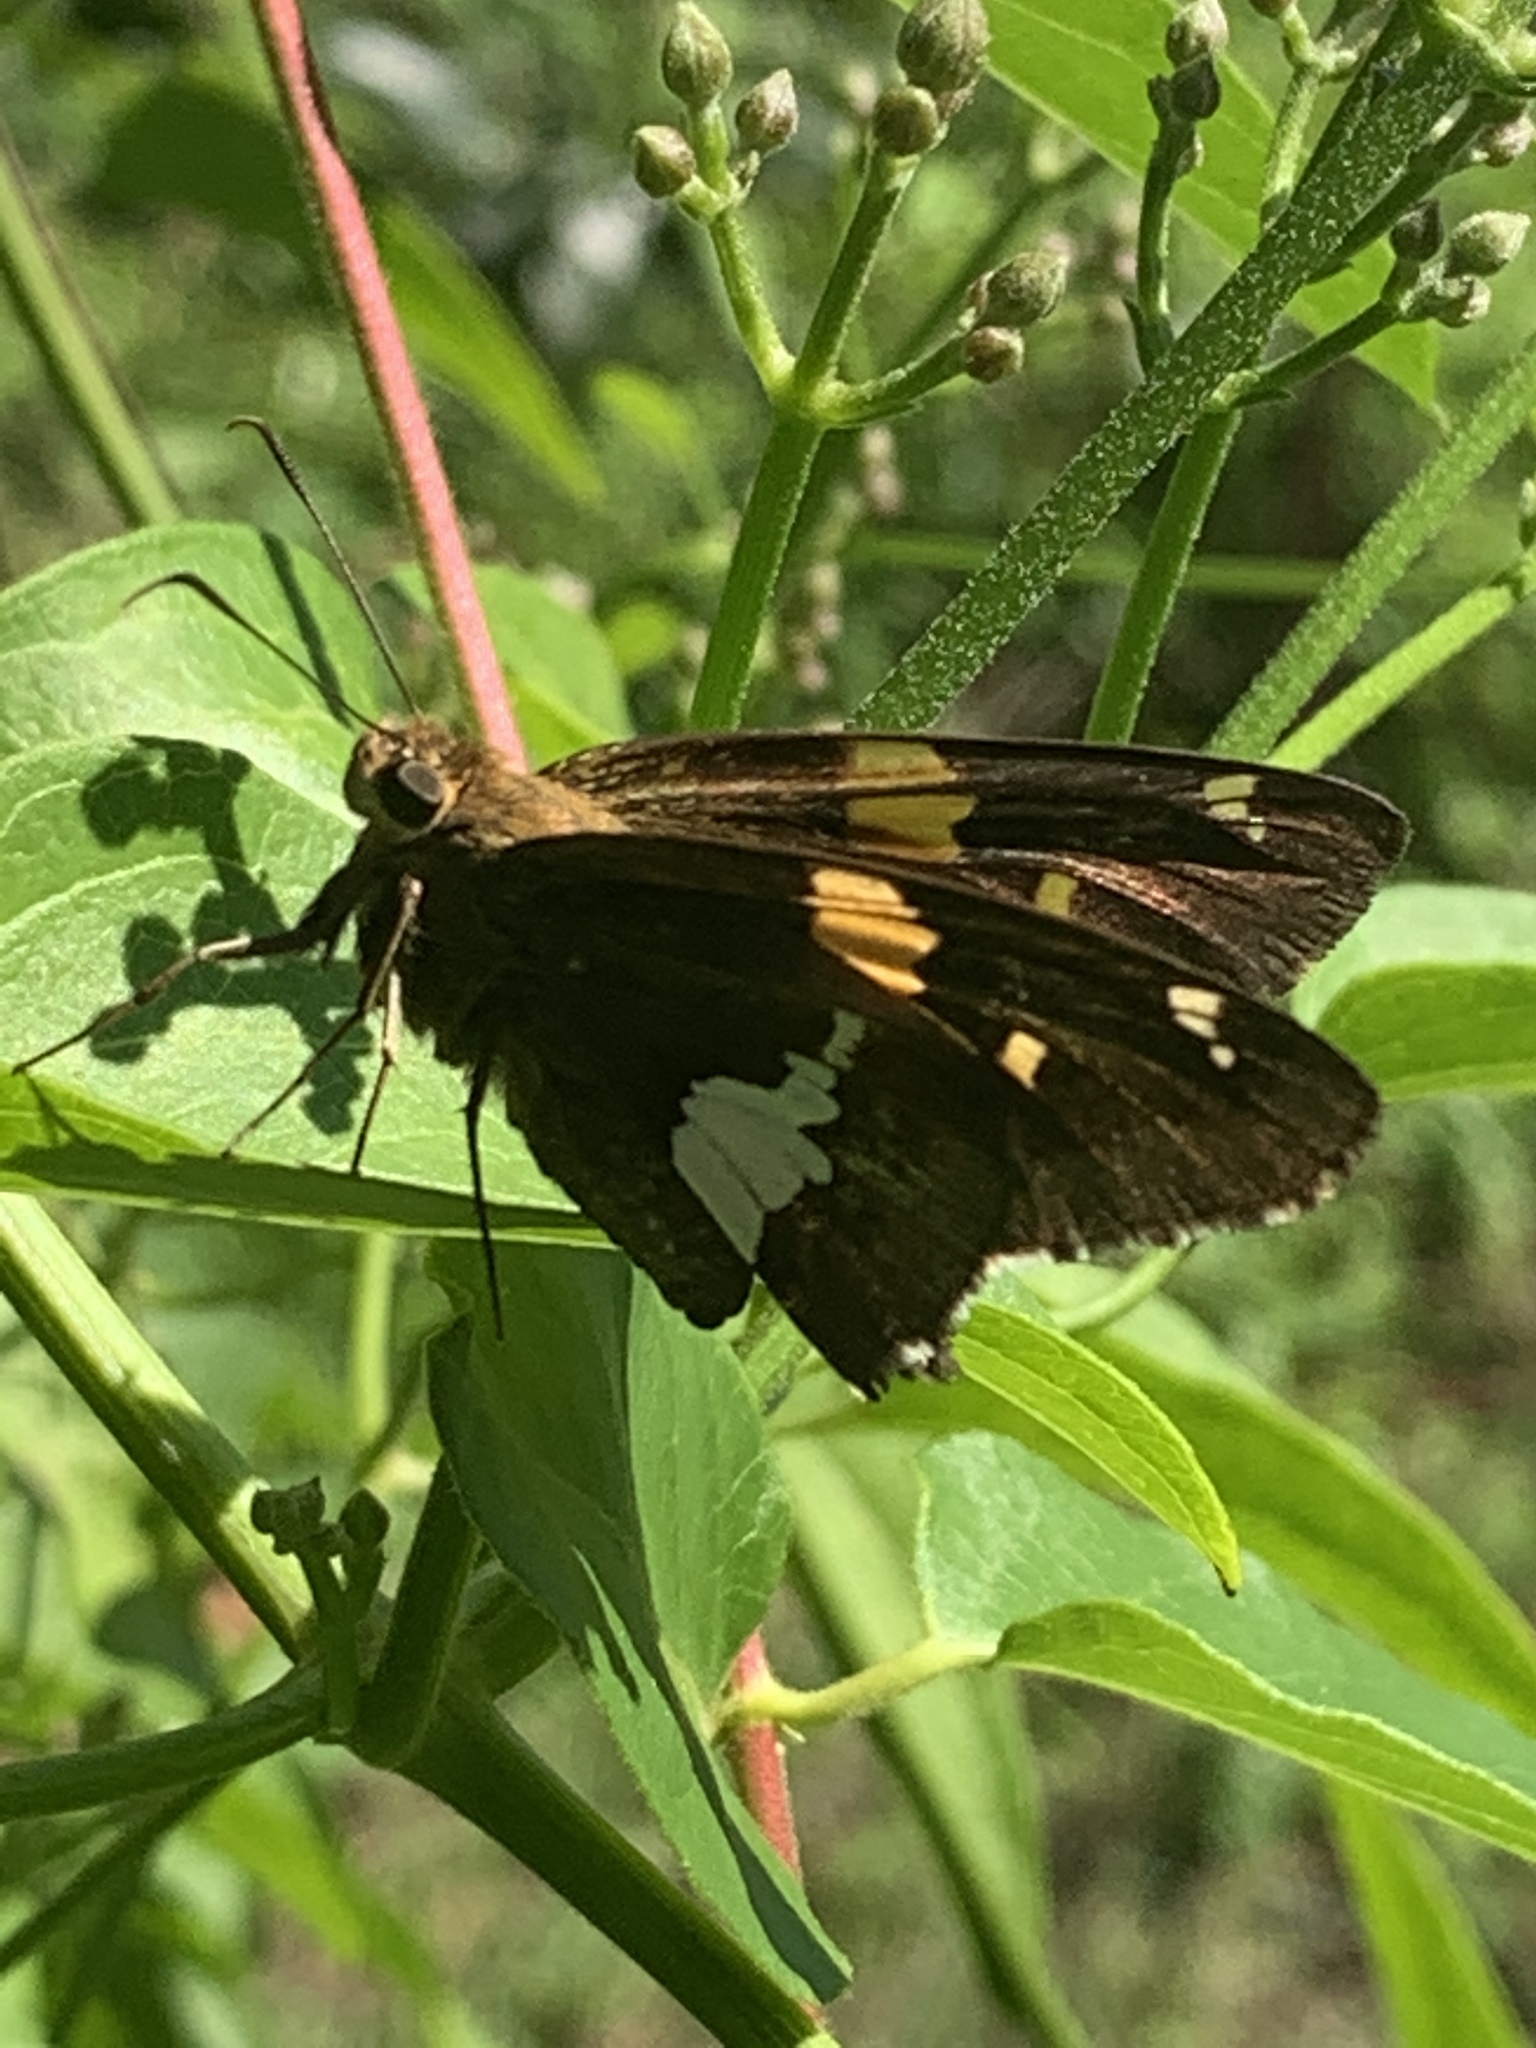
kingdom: Animalia
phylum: Arthropoda
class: Insecta
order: Lepidoptera
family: Hesperiidae
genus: Epargyreus
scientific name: Epargyreus clarus
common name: Silver-spotted skipper
